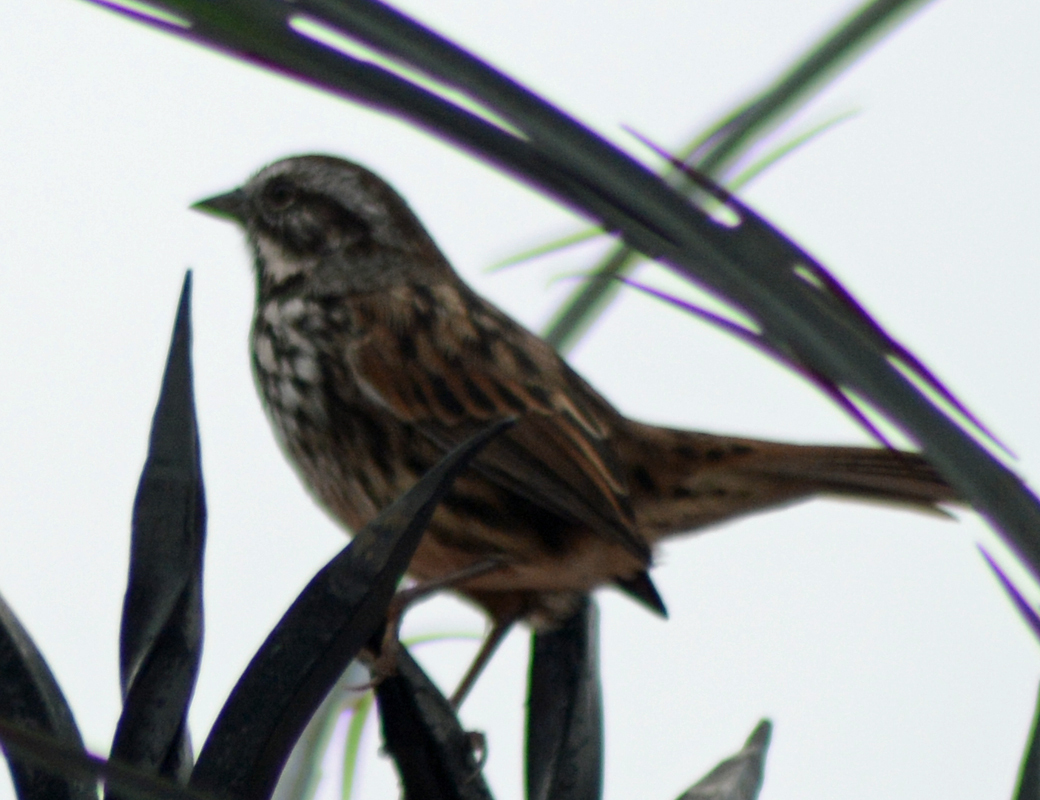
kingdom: Animalia
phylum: Chordata
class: Aves
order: Passeriformes
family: Passerellidae
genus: Melospiza
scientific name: Melospiza melodia
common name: Song sparrow
